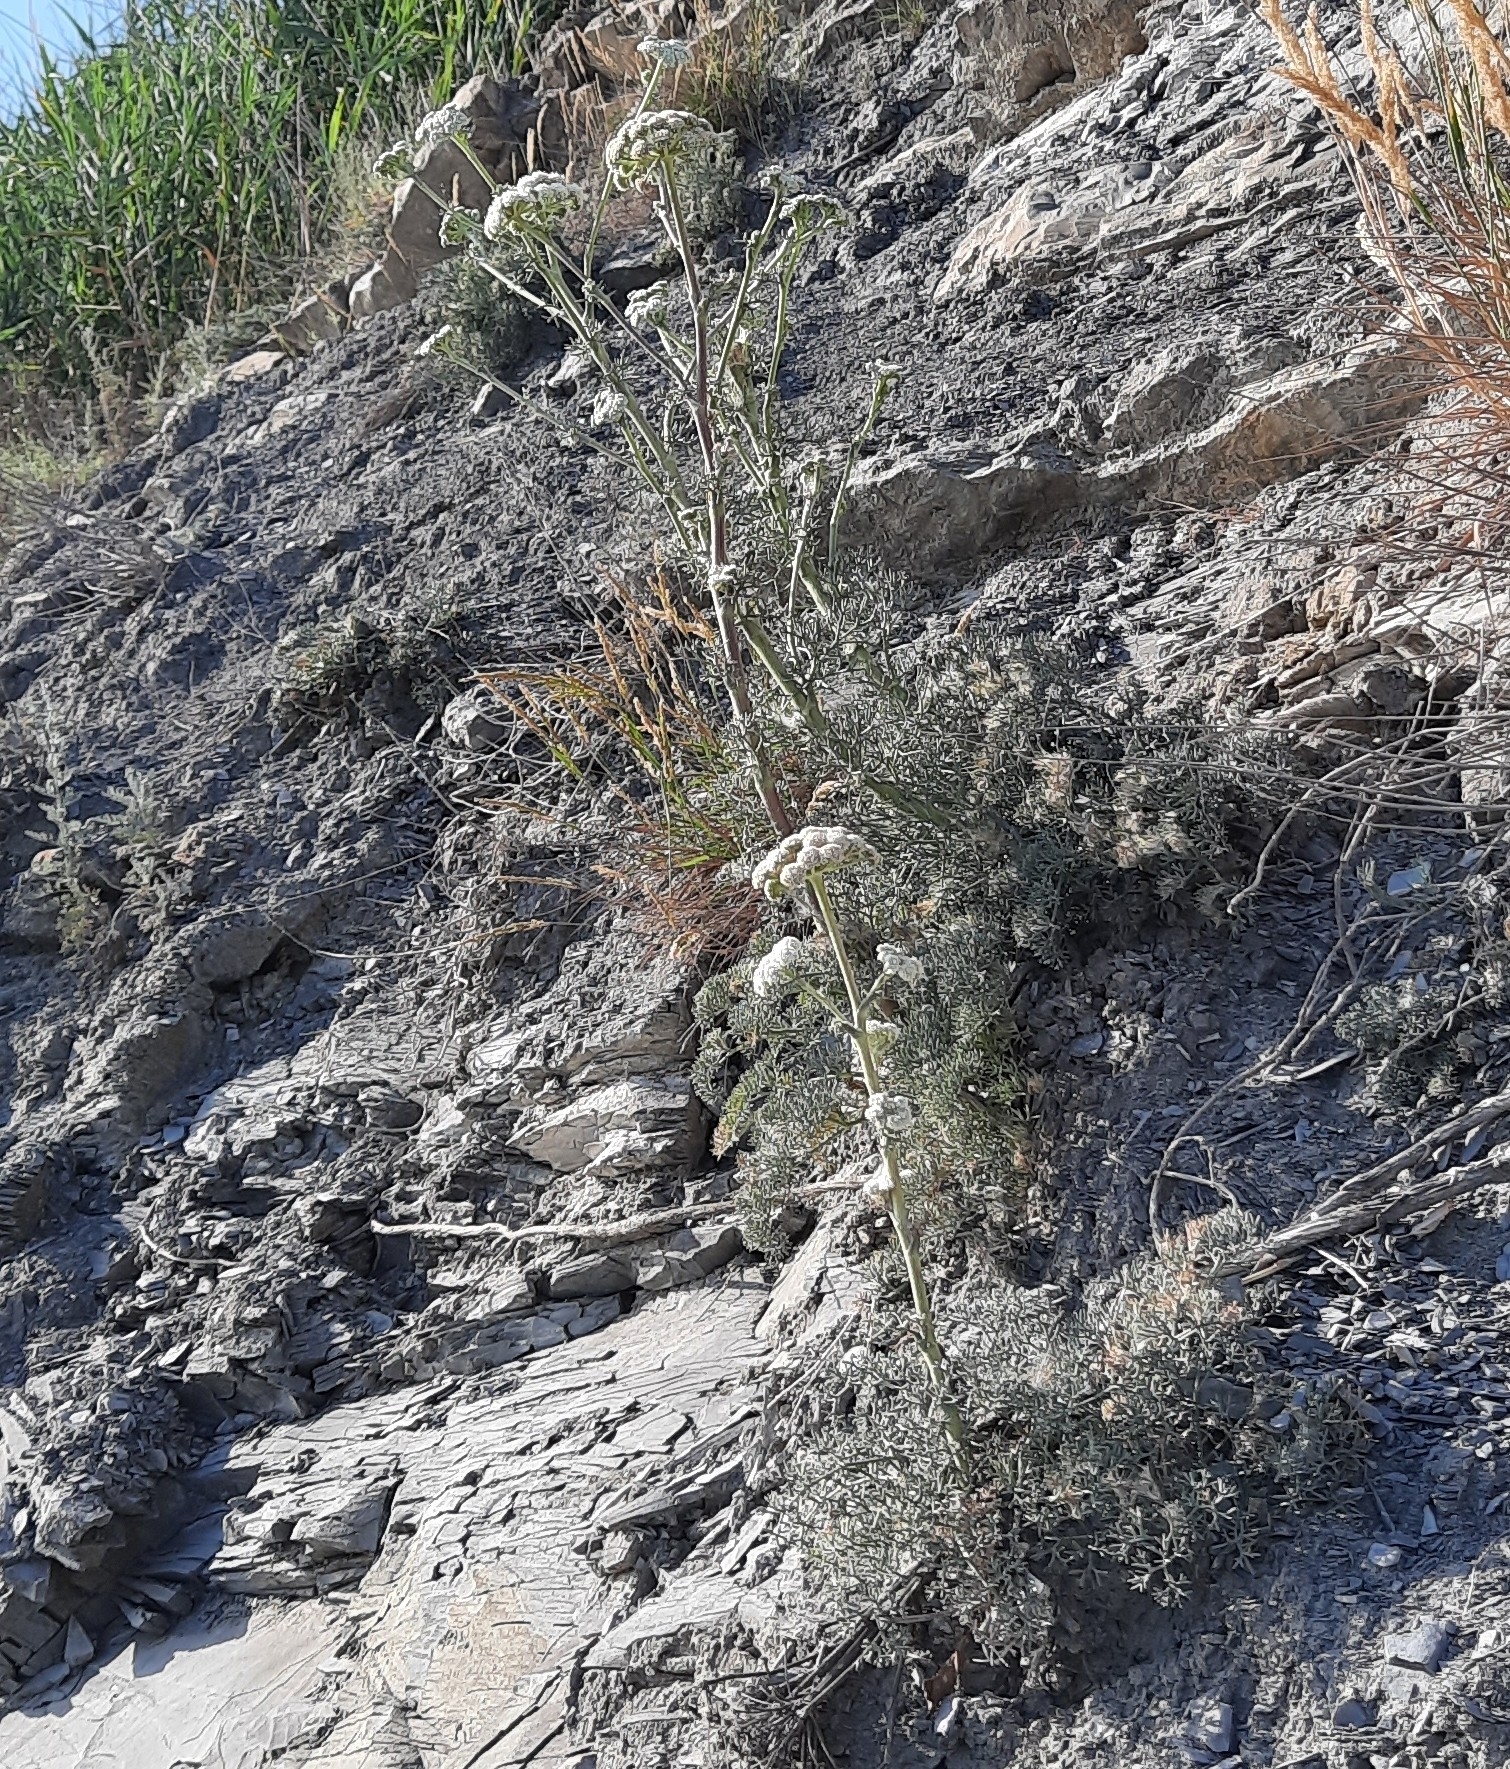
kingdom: Plantae
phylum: Tracheophyta
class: Magnoliopsida
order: Apiales
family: Apiaceae
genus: Seseli
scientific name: Seseli ponticum
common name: Pontic seseli
